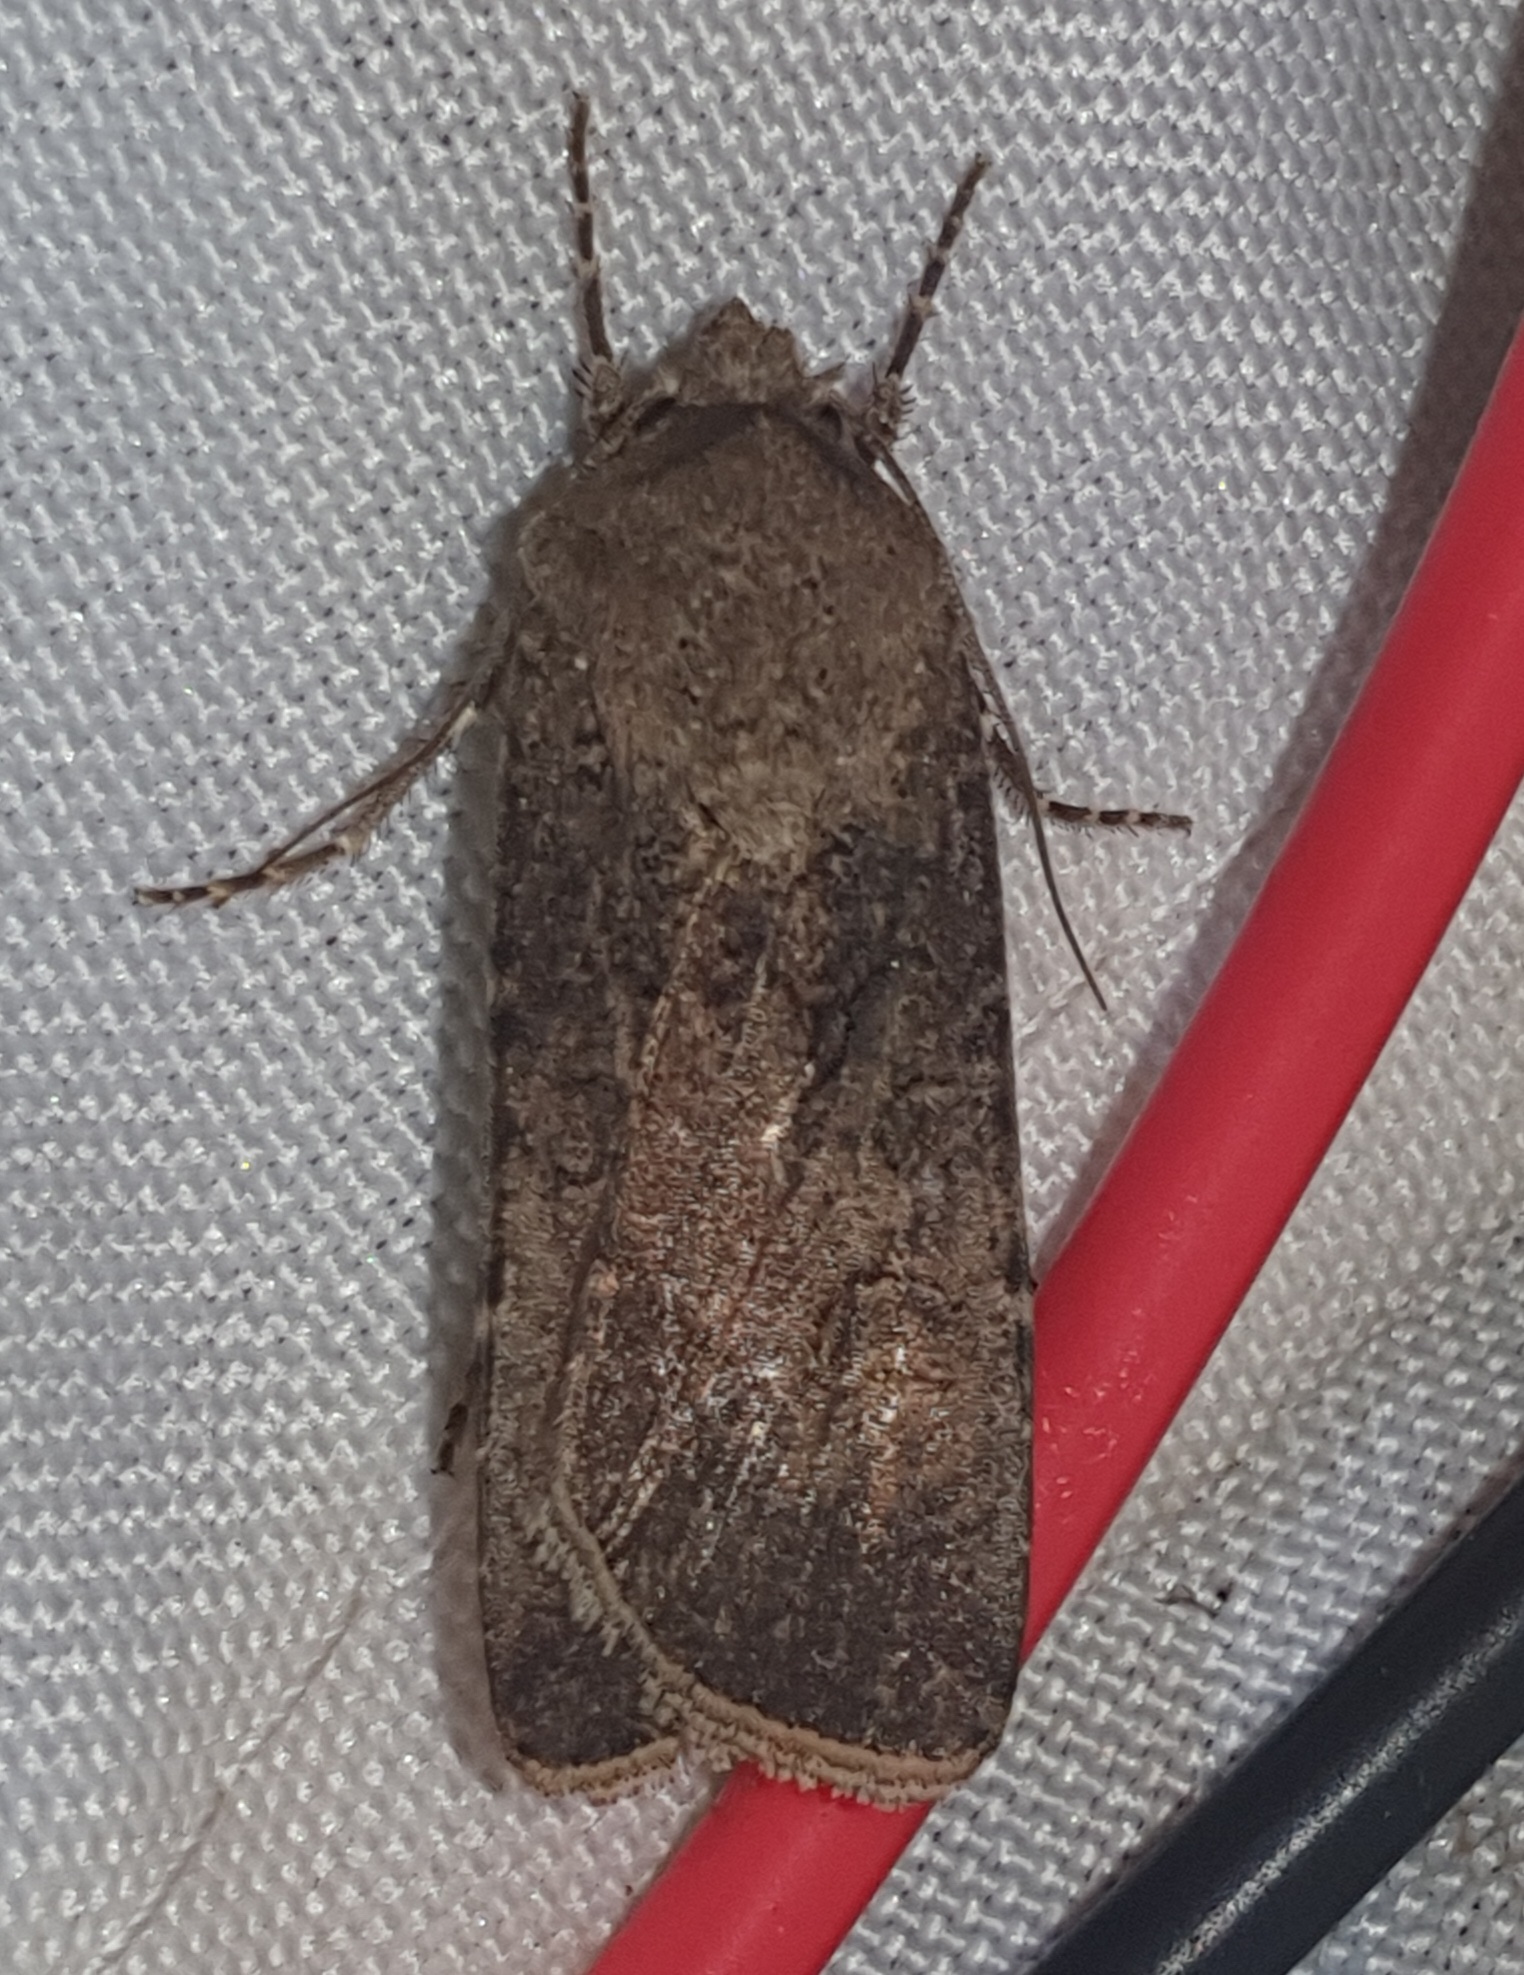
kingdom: Animalia
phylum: Arthropoda
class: Insecta
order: Lepidoptera
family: Noctuidae
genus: Agrotis
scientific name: Agrotis segetum
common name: Turnip moth
